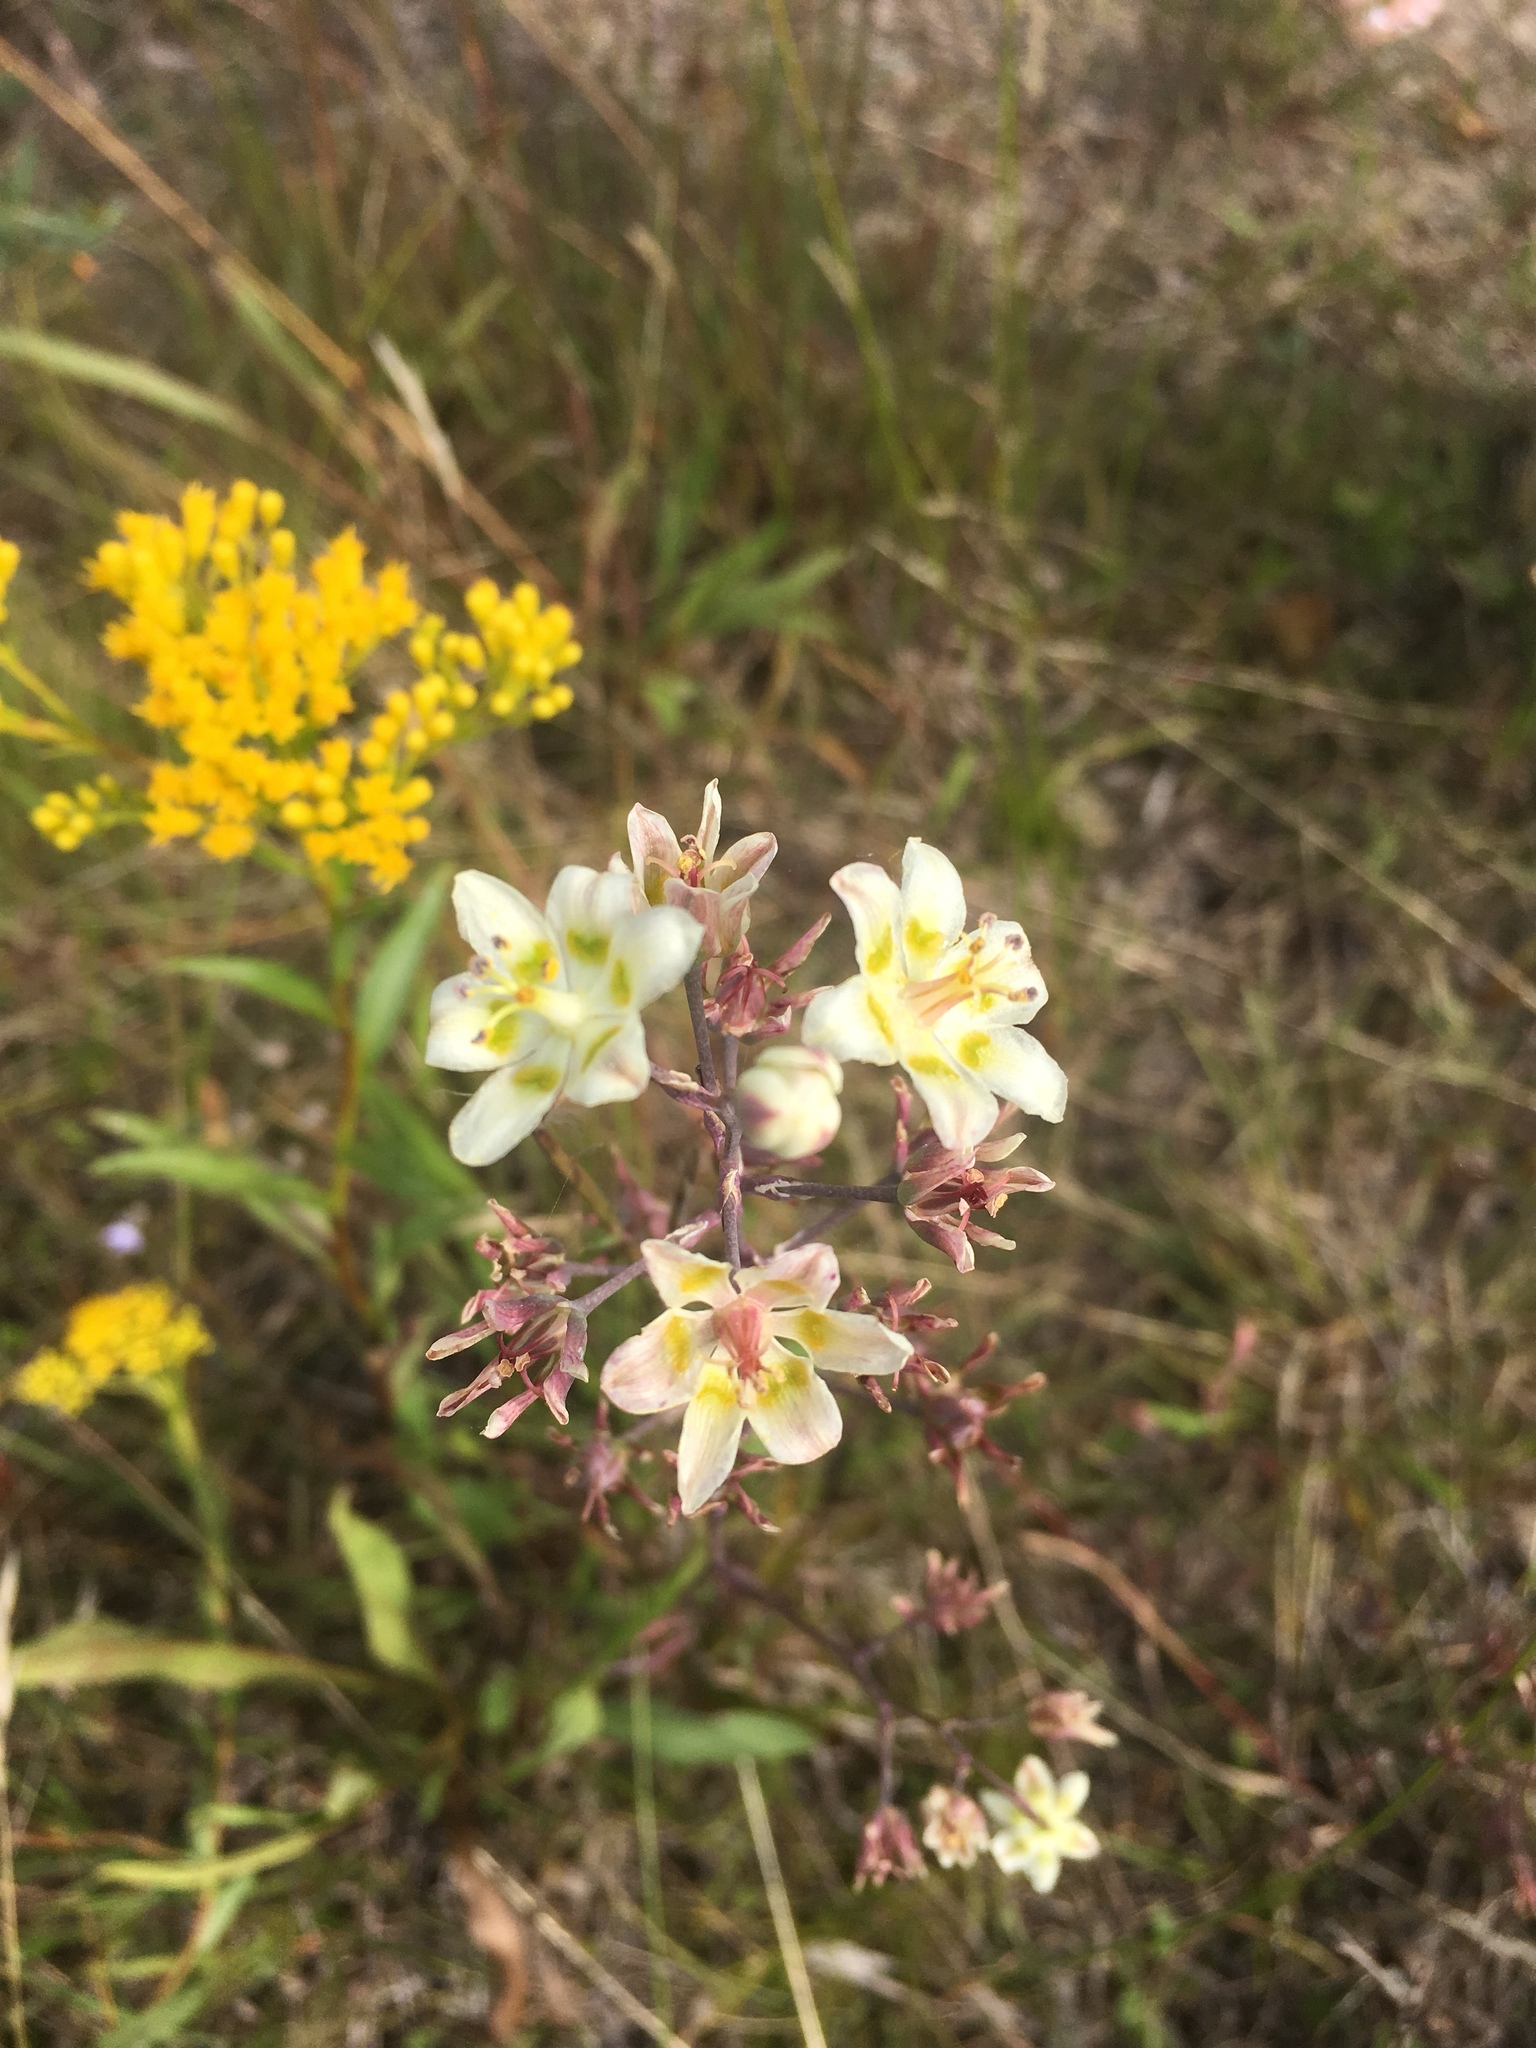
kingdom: Plantae
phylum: Tracheophyta
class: Liliopsida
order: Liliales
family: Melanthiaceae
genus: Anticlea
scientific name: Anticlea elegans
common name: Mountain death camas
